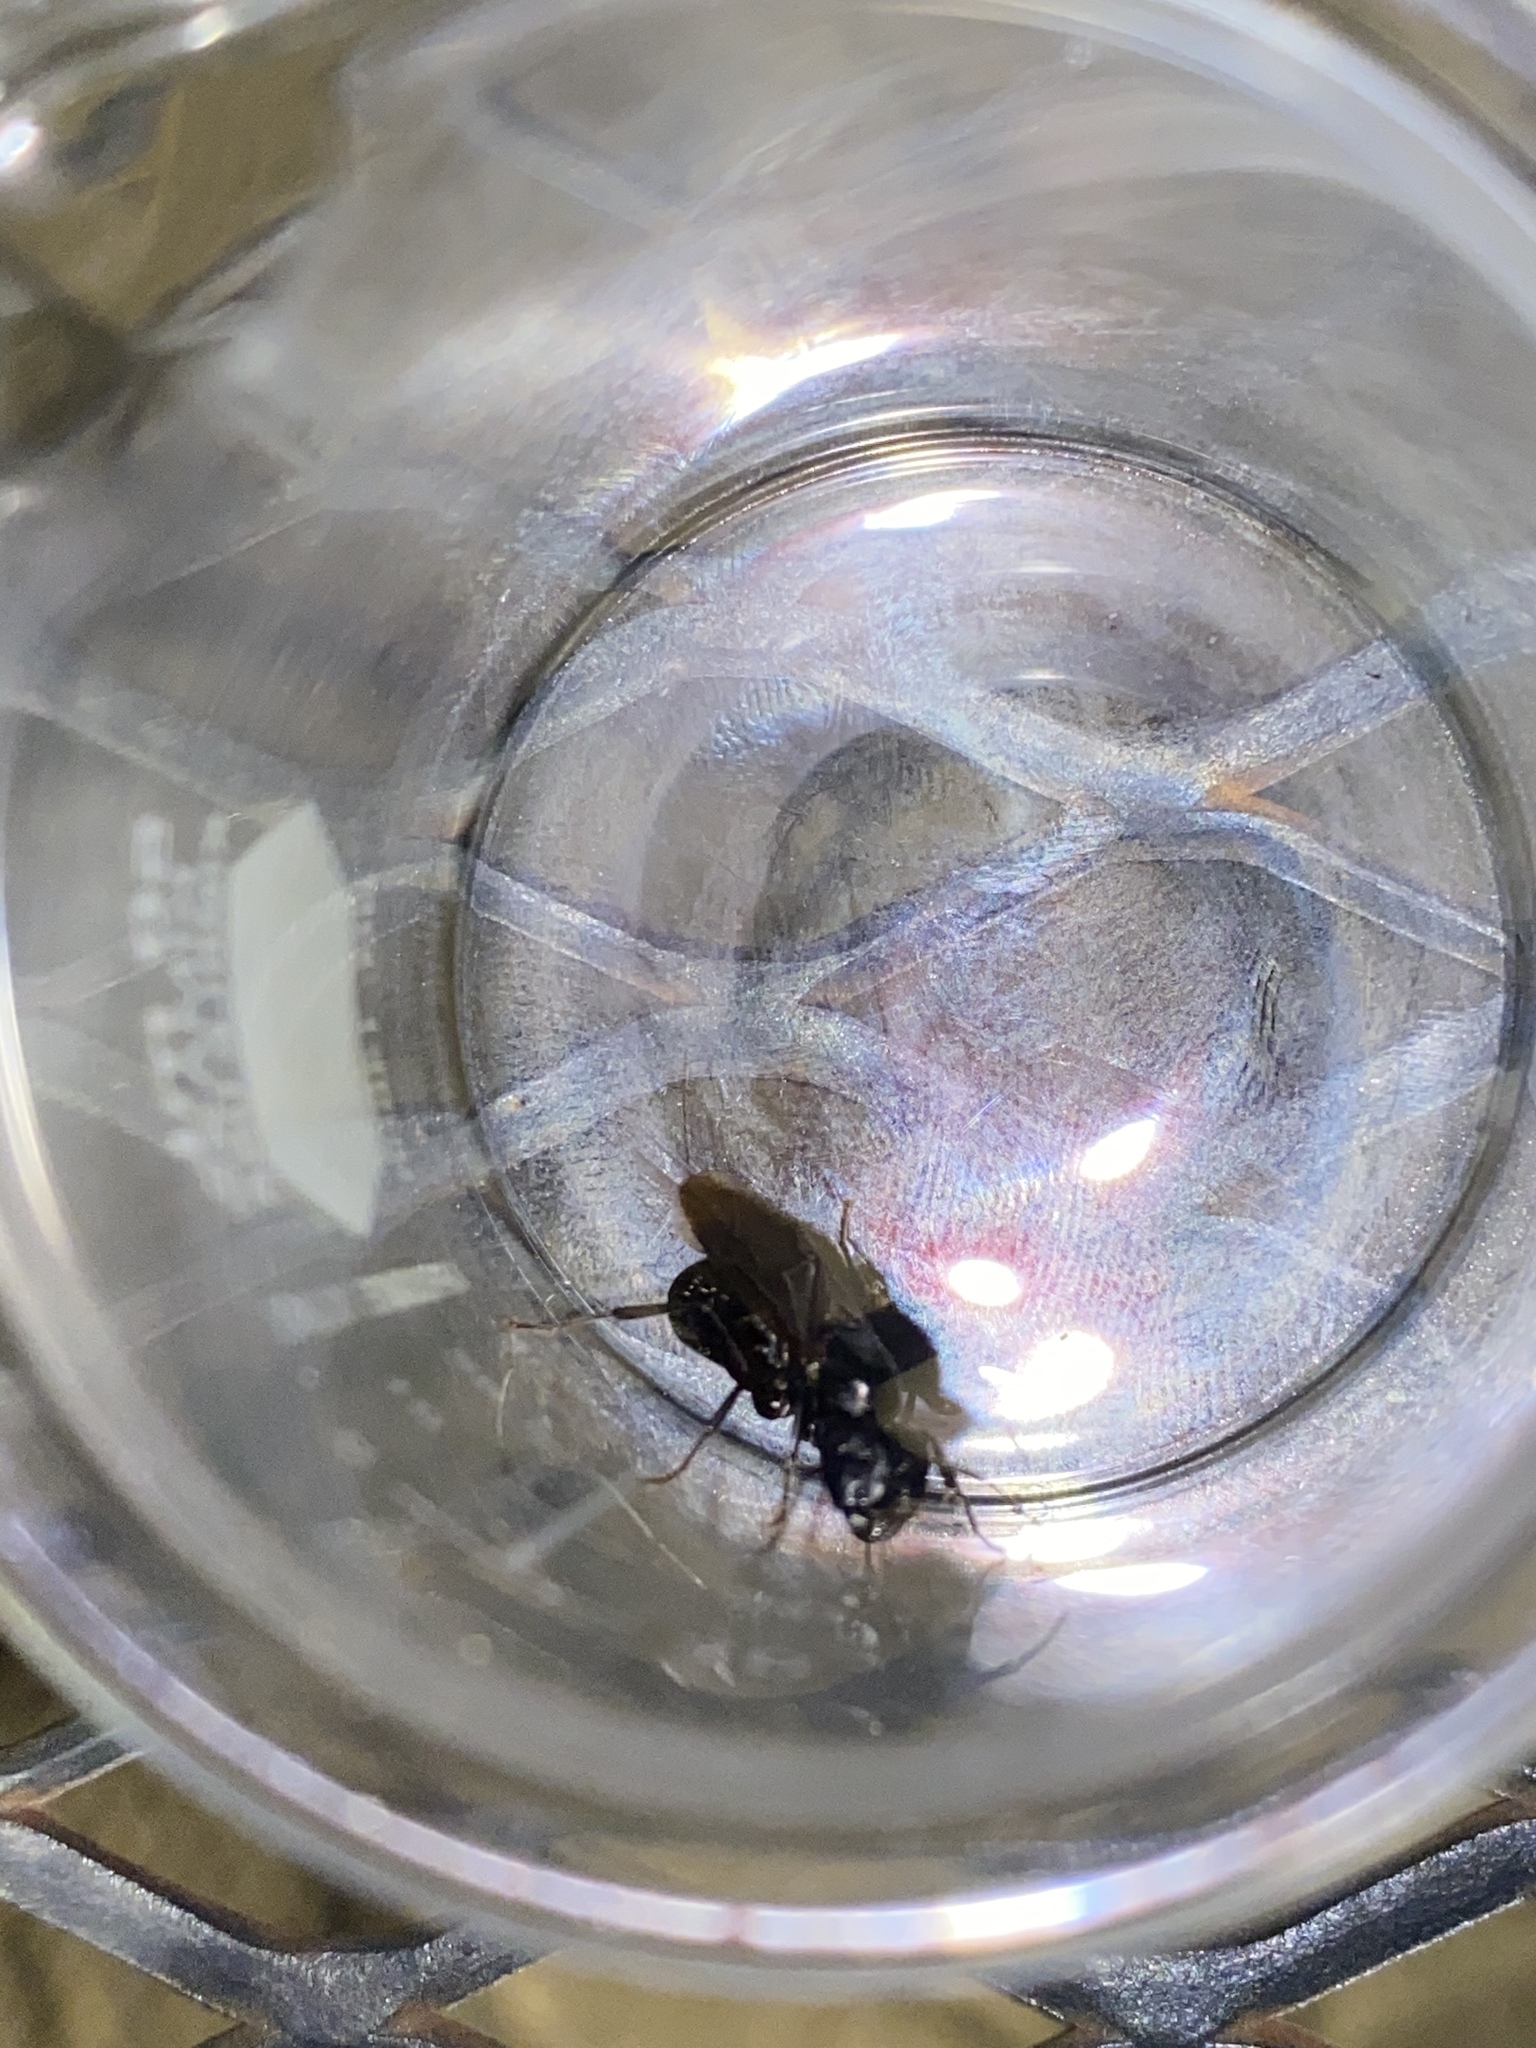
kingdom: Animalia
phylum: Arthropoda
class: Insecta
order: Hymenoptera
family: Formicidae
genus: Camponotus
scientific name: Camponotus pennsylvanicus
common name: Black carpenter ant
